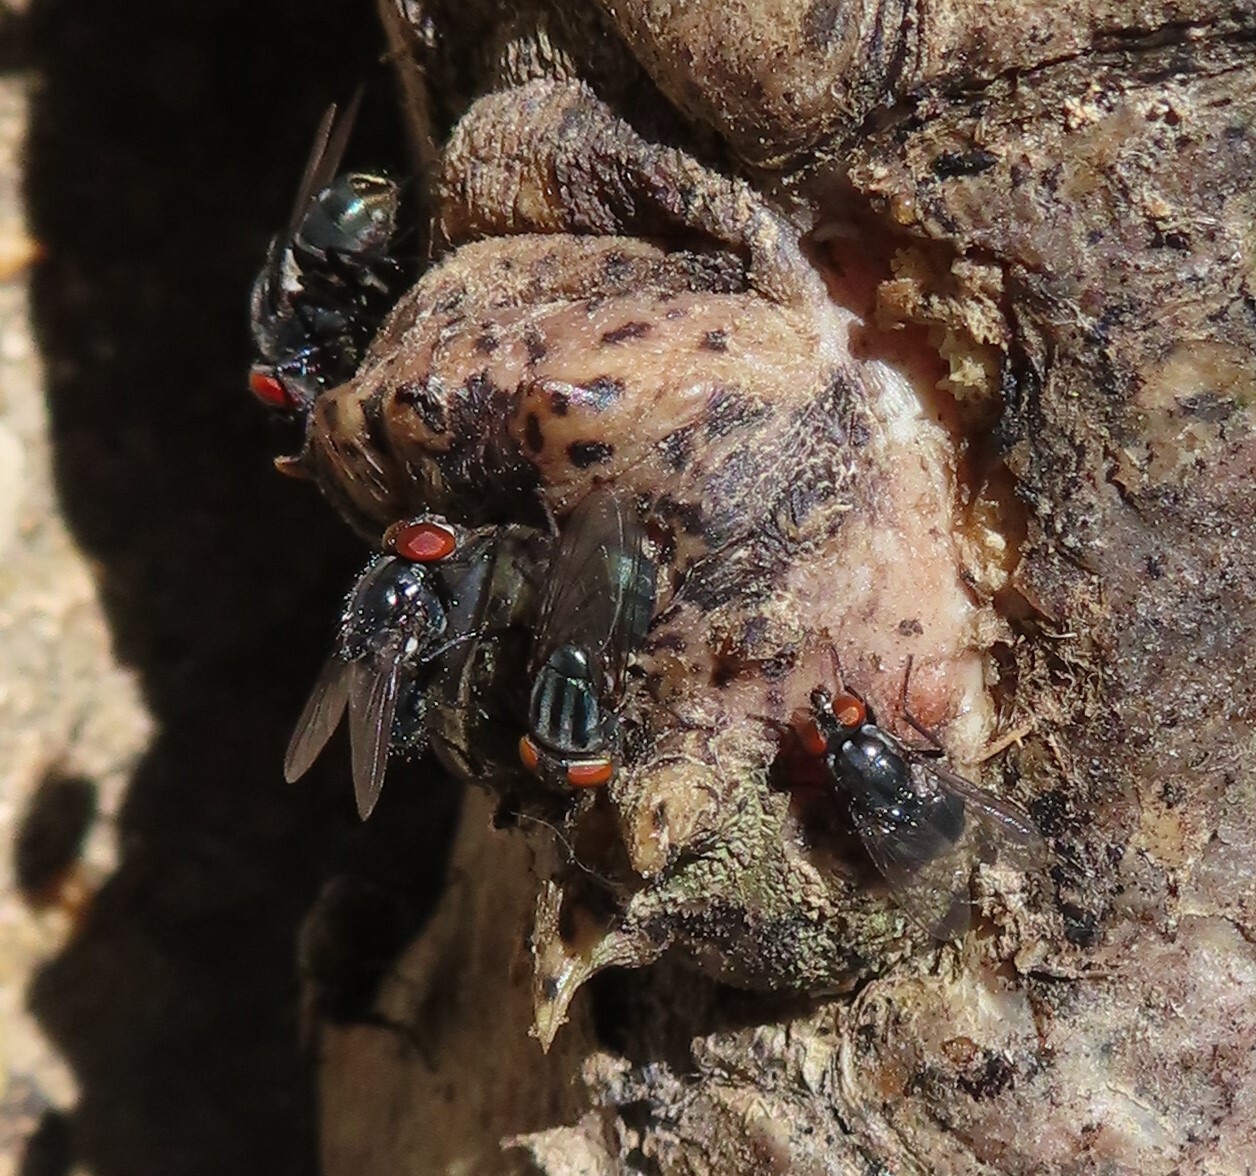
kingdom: Animalia
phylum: Arthropoda
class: Insecta
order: Diptera
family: Calliphoridae
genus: Cochliomyia
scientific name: Cochliomyia macellaria
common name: Secondary screwworm
